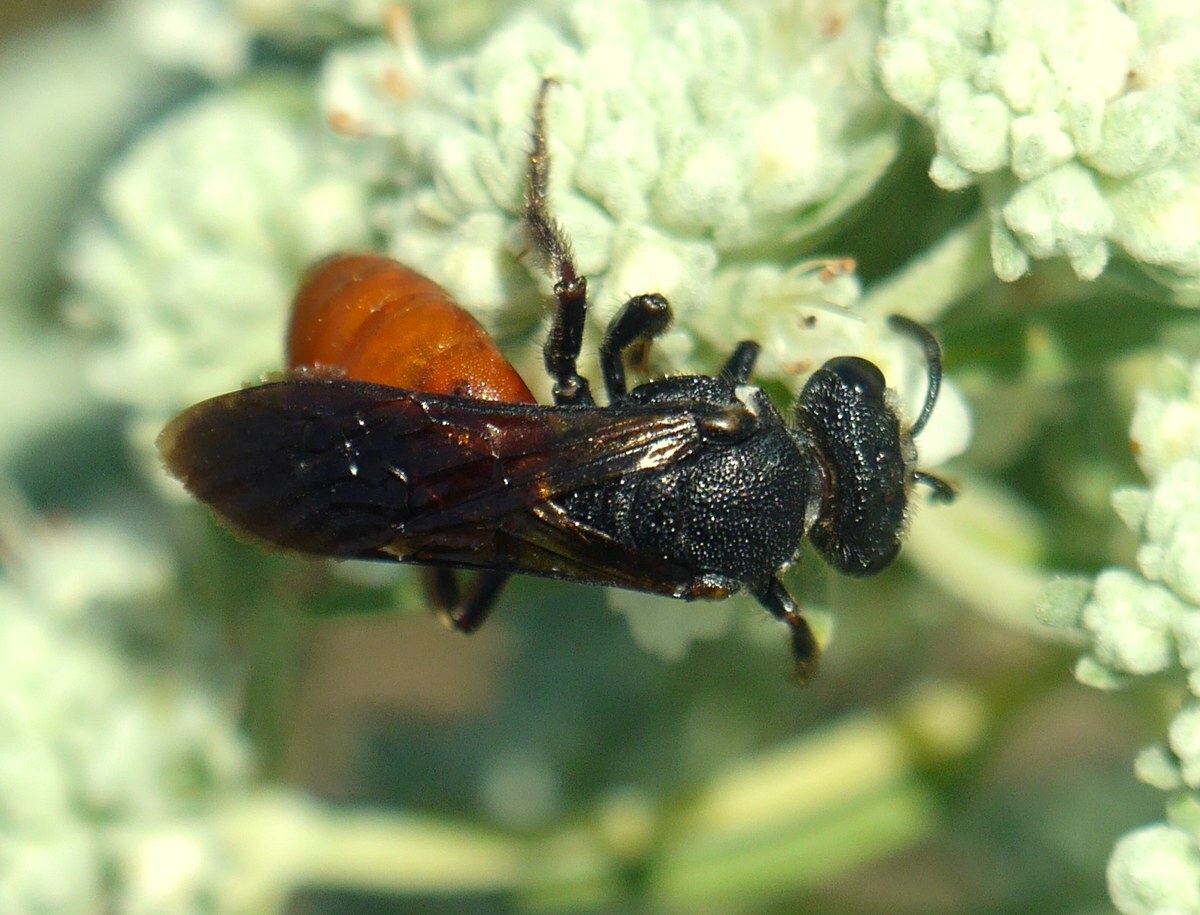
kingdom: Animalia
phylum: Arthropoda
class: Insecta
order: Hymenoptera
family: Halictidae
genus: Sphecodes
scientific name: Sphecodes albilabris
